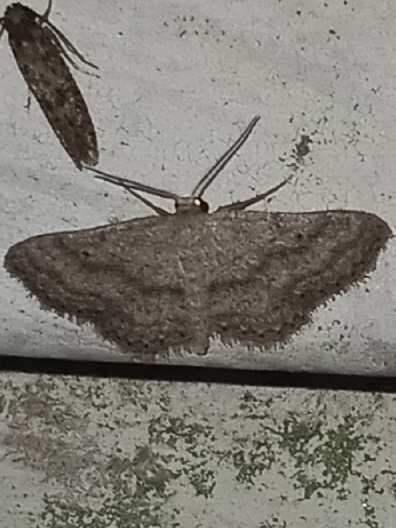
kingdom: Animalia
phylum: Arthropoda
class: Insecta
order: Lepidoptera
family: Geometridae
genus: Lobocleta
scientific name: Lobocleta ossularia
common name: Drab brown wave
